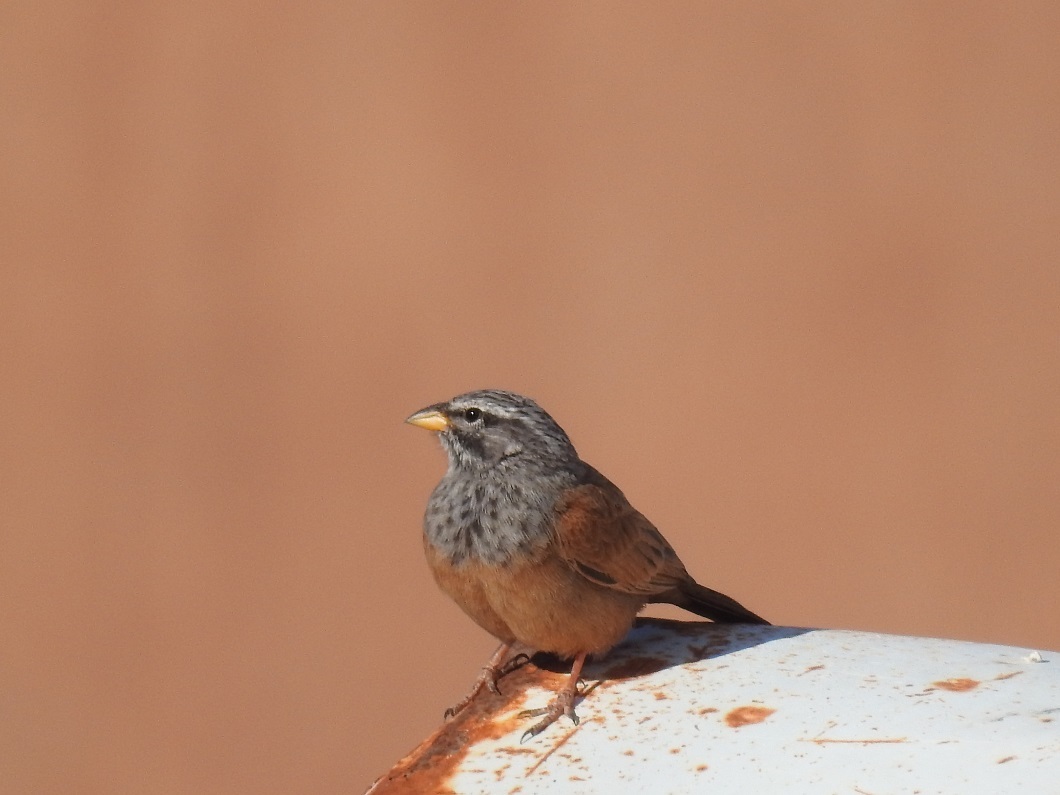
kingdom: Animalia
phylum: Chordata
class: Aves
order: Passeriformes
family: Emberizidae
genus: Emberiza
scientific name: Emberiza sahari
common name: House bunting
